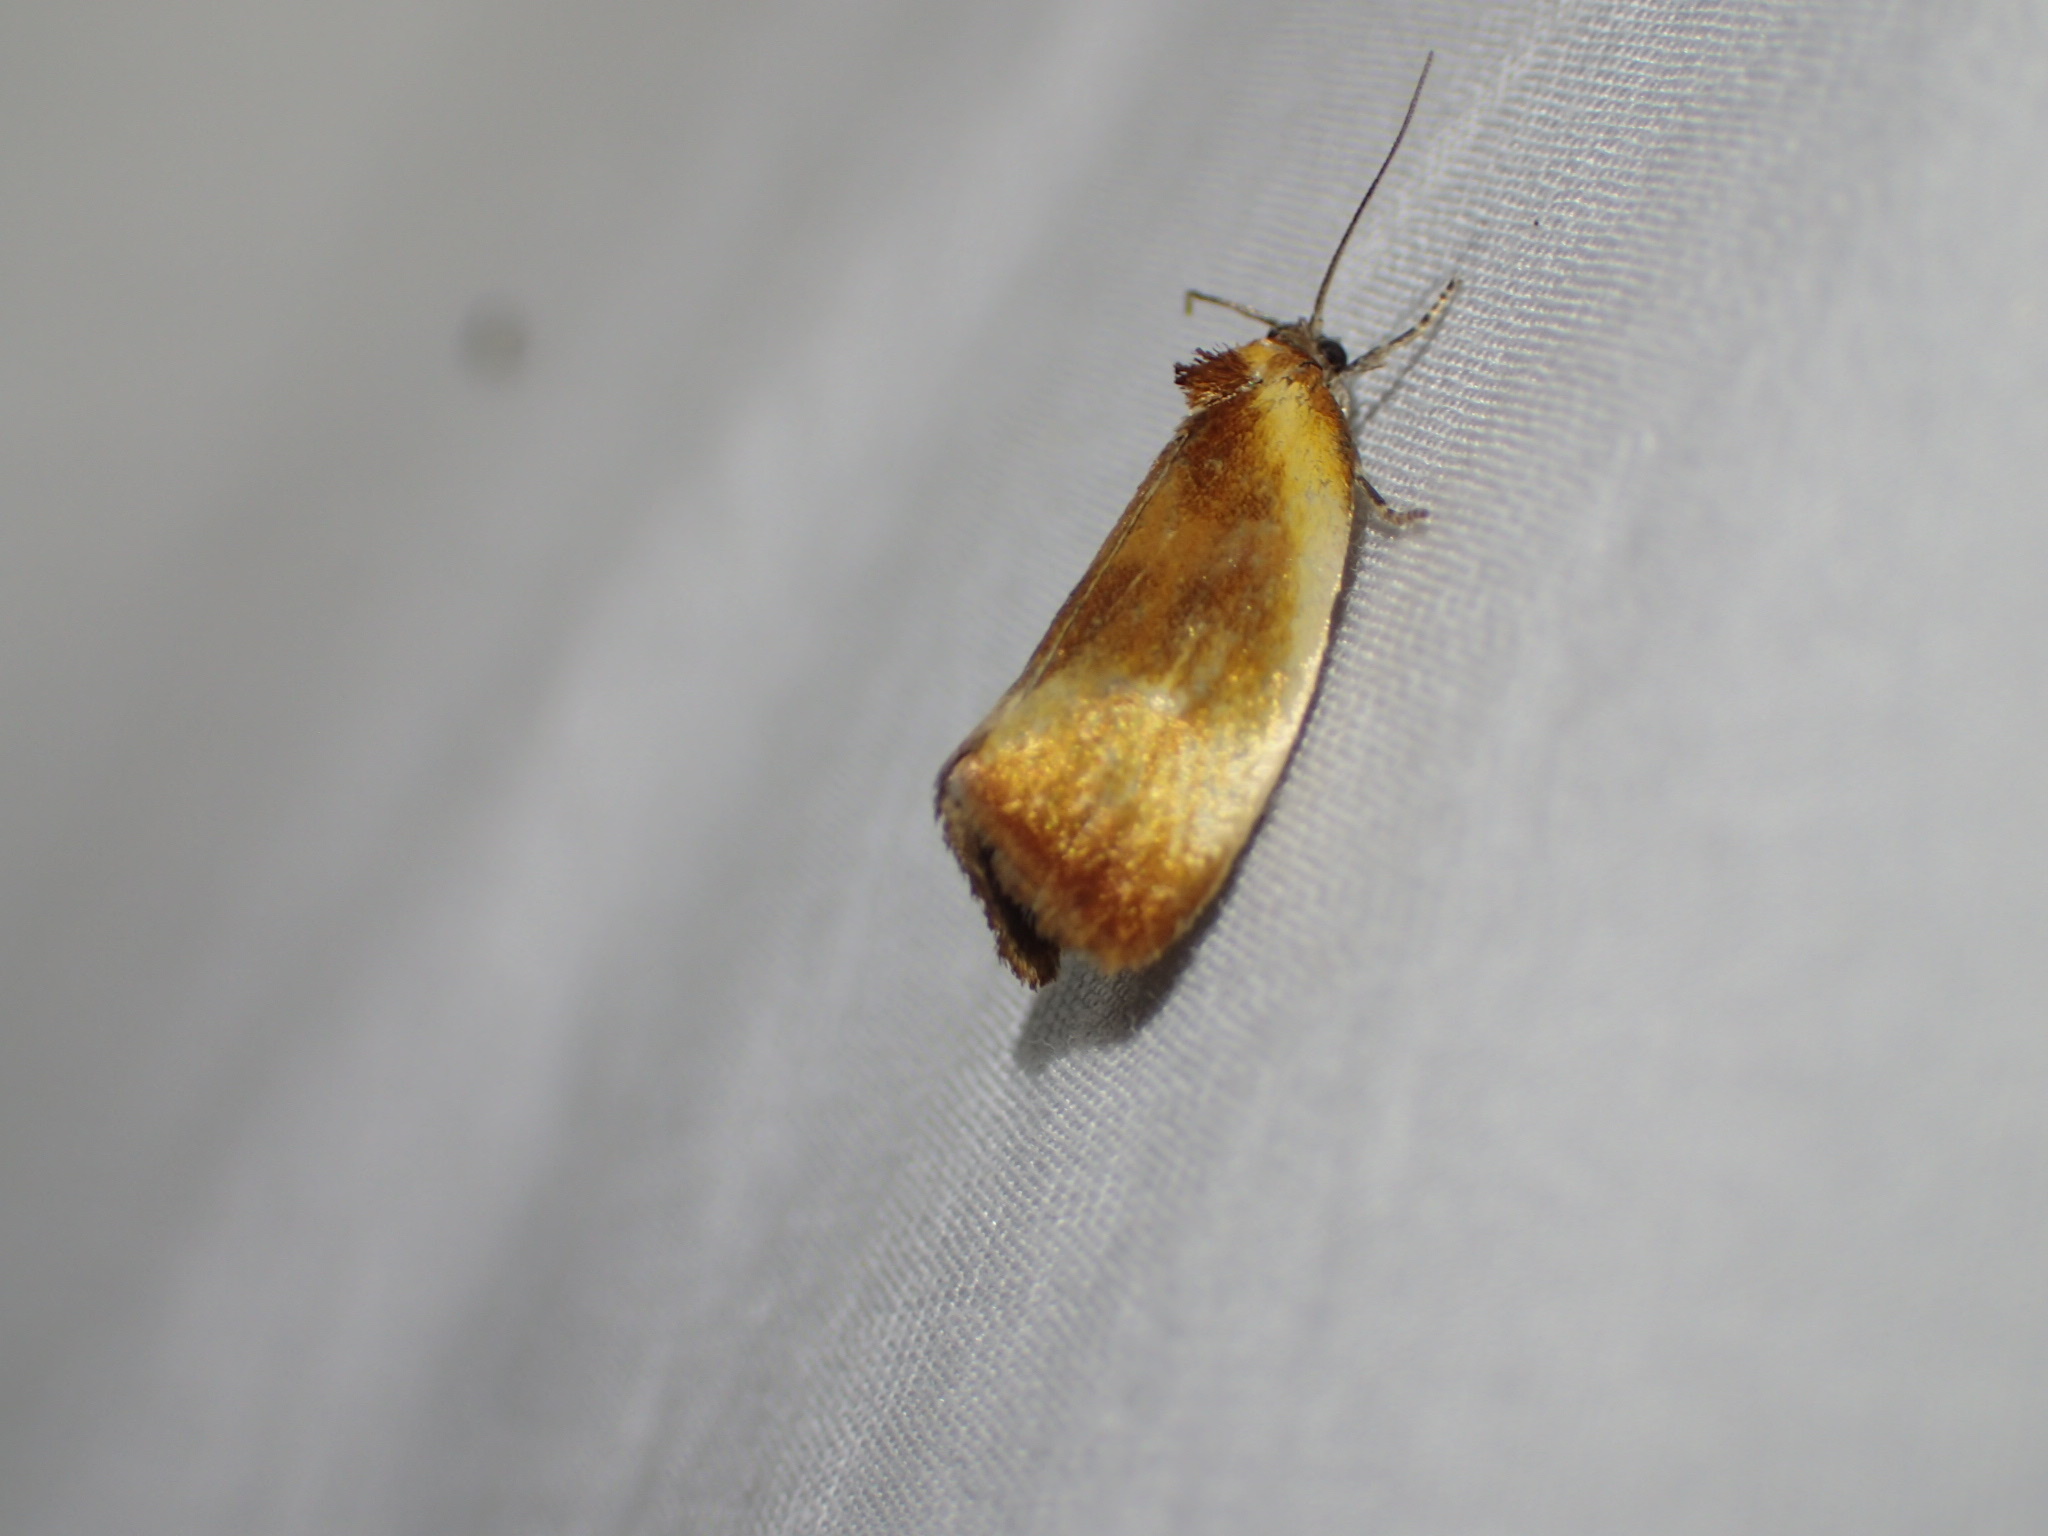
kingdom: Animalia
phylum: Arthropoda
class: Insecta
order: Lepidoptera
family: Tortricidae
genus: Eulia
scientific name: Eulia ministrana
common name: Brassy twist
